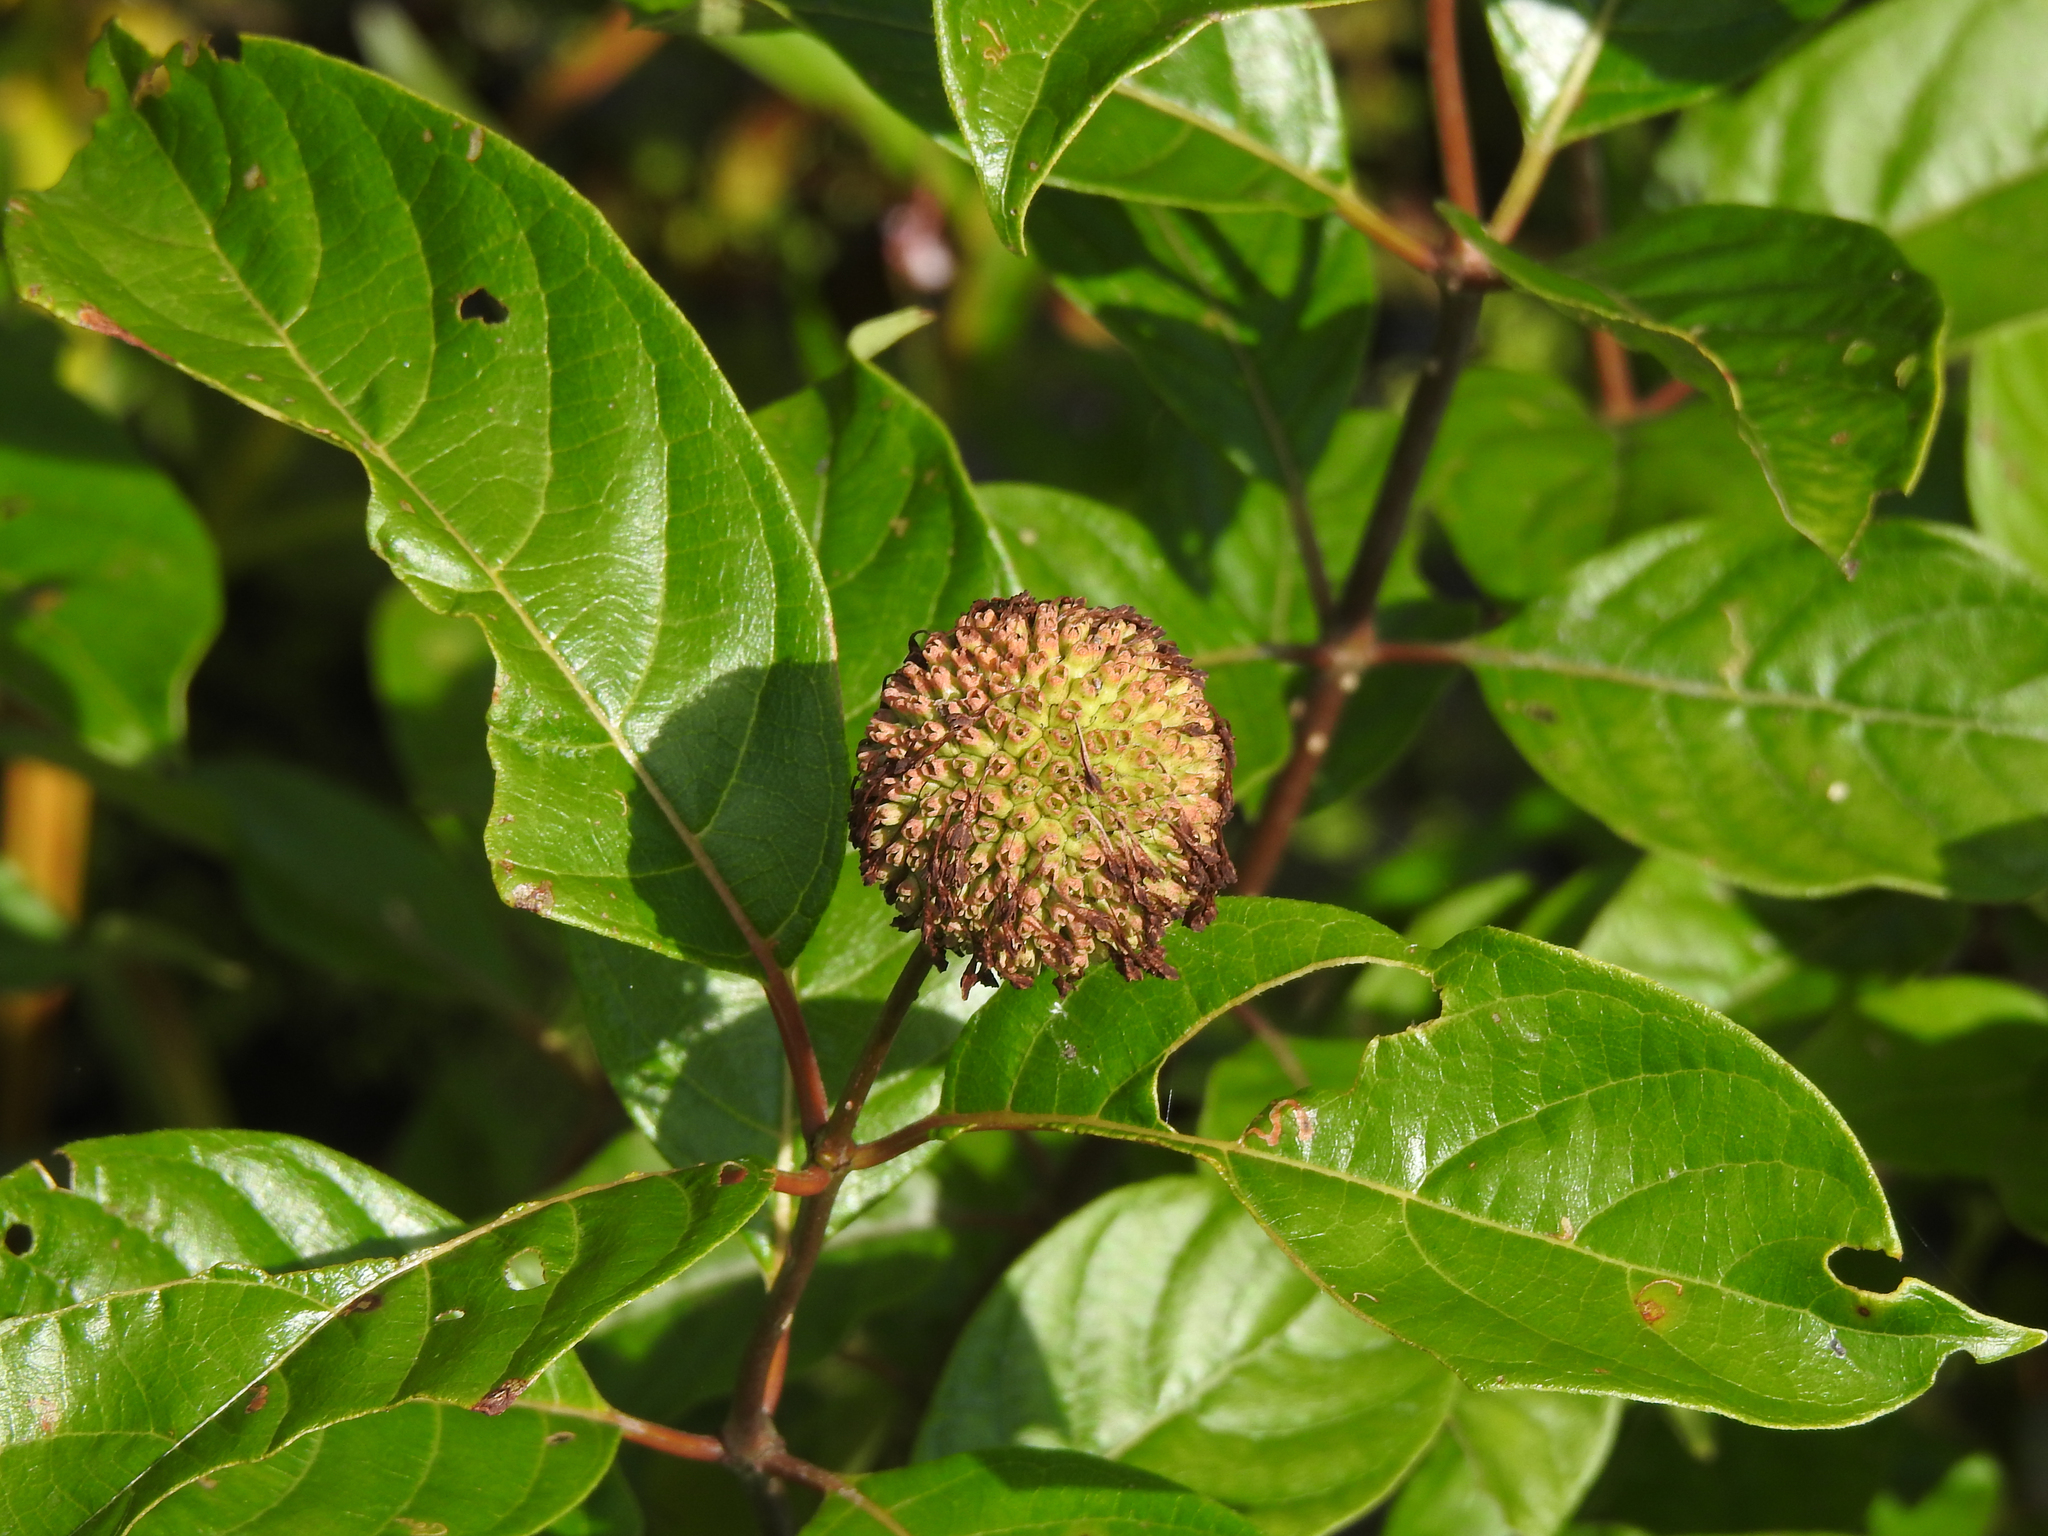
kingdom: Plantae
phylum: Tracheophyta
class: Magnoliopsida
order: Gentianales
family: Rubiaceae
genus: Cephalanthus
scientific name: Cephalanthus occidentalis
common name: Button-willow
